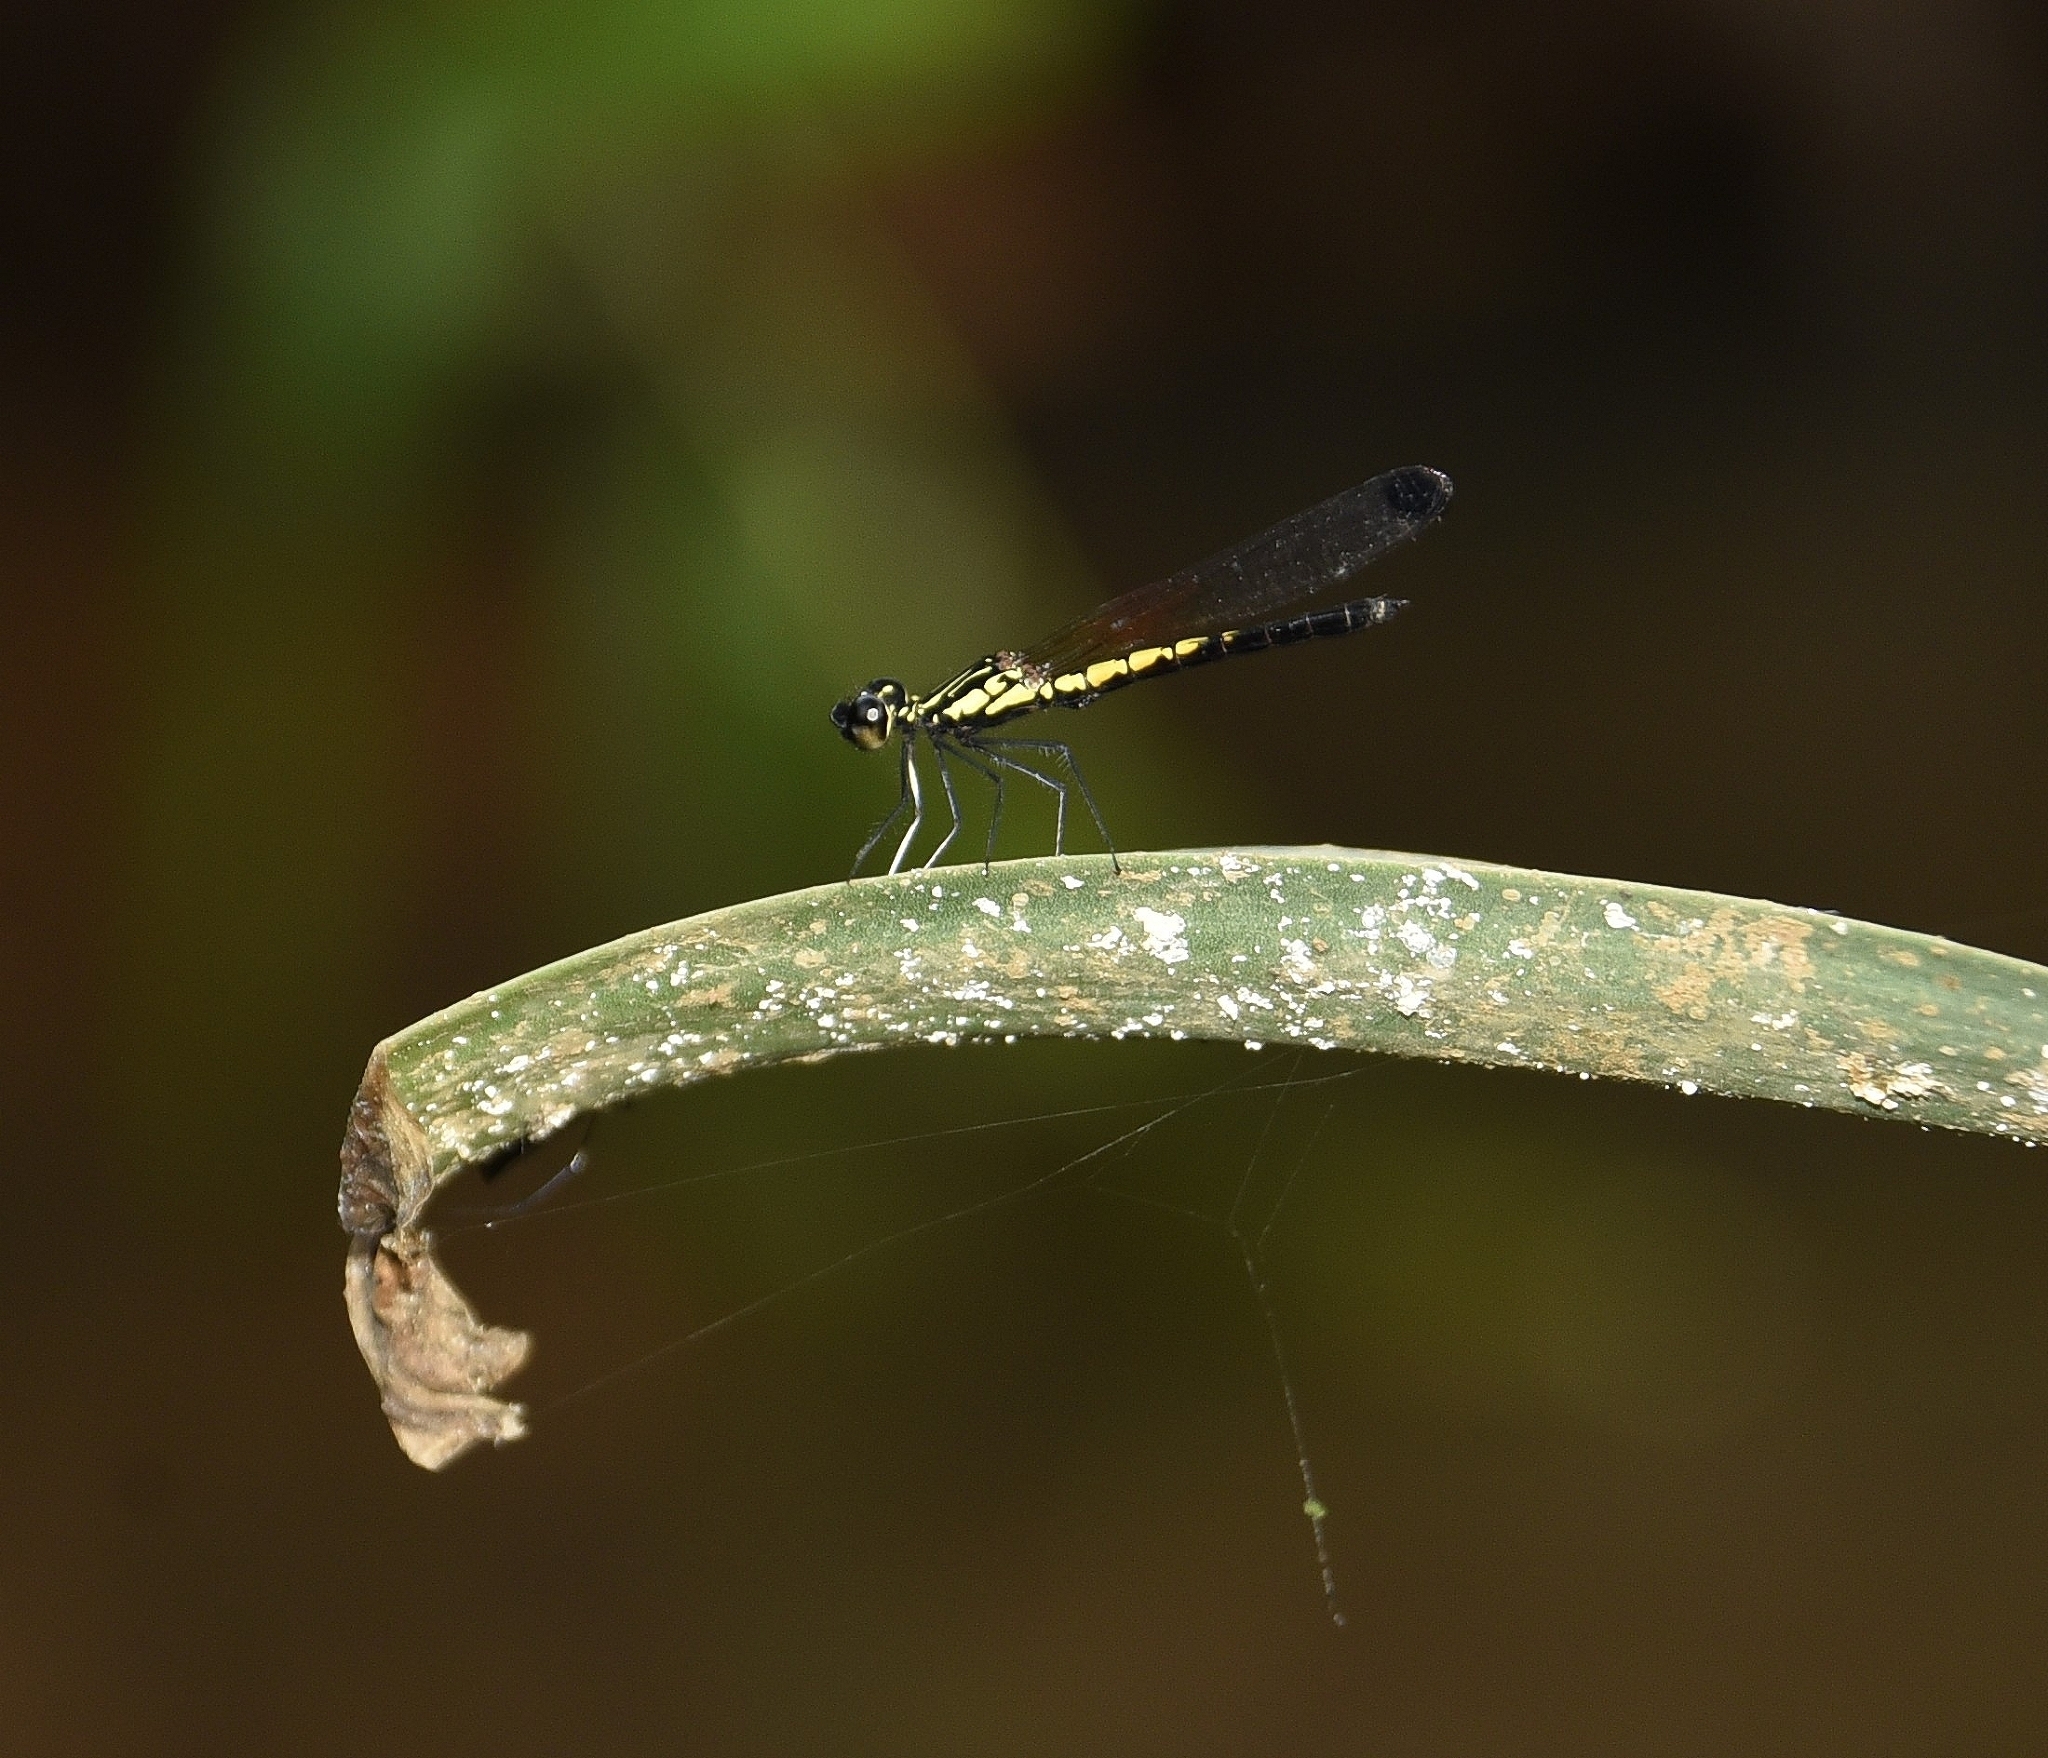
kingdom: Animalia
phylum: Arthropoda
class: Insecta
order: Odonata
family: Chlorocyphidae
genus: Libellago
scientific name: Libellago indica
